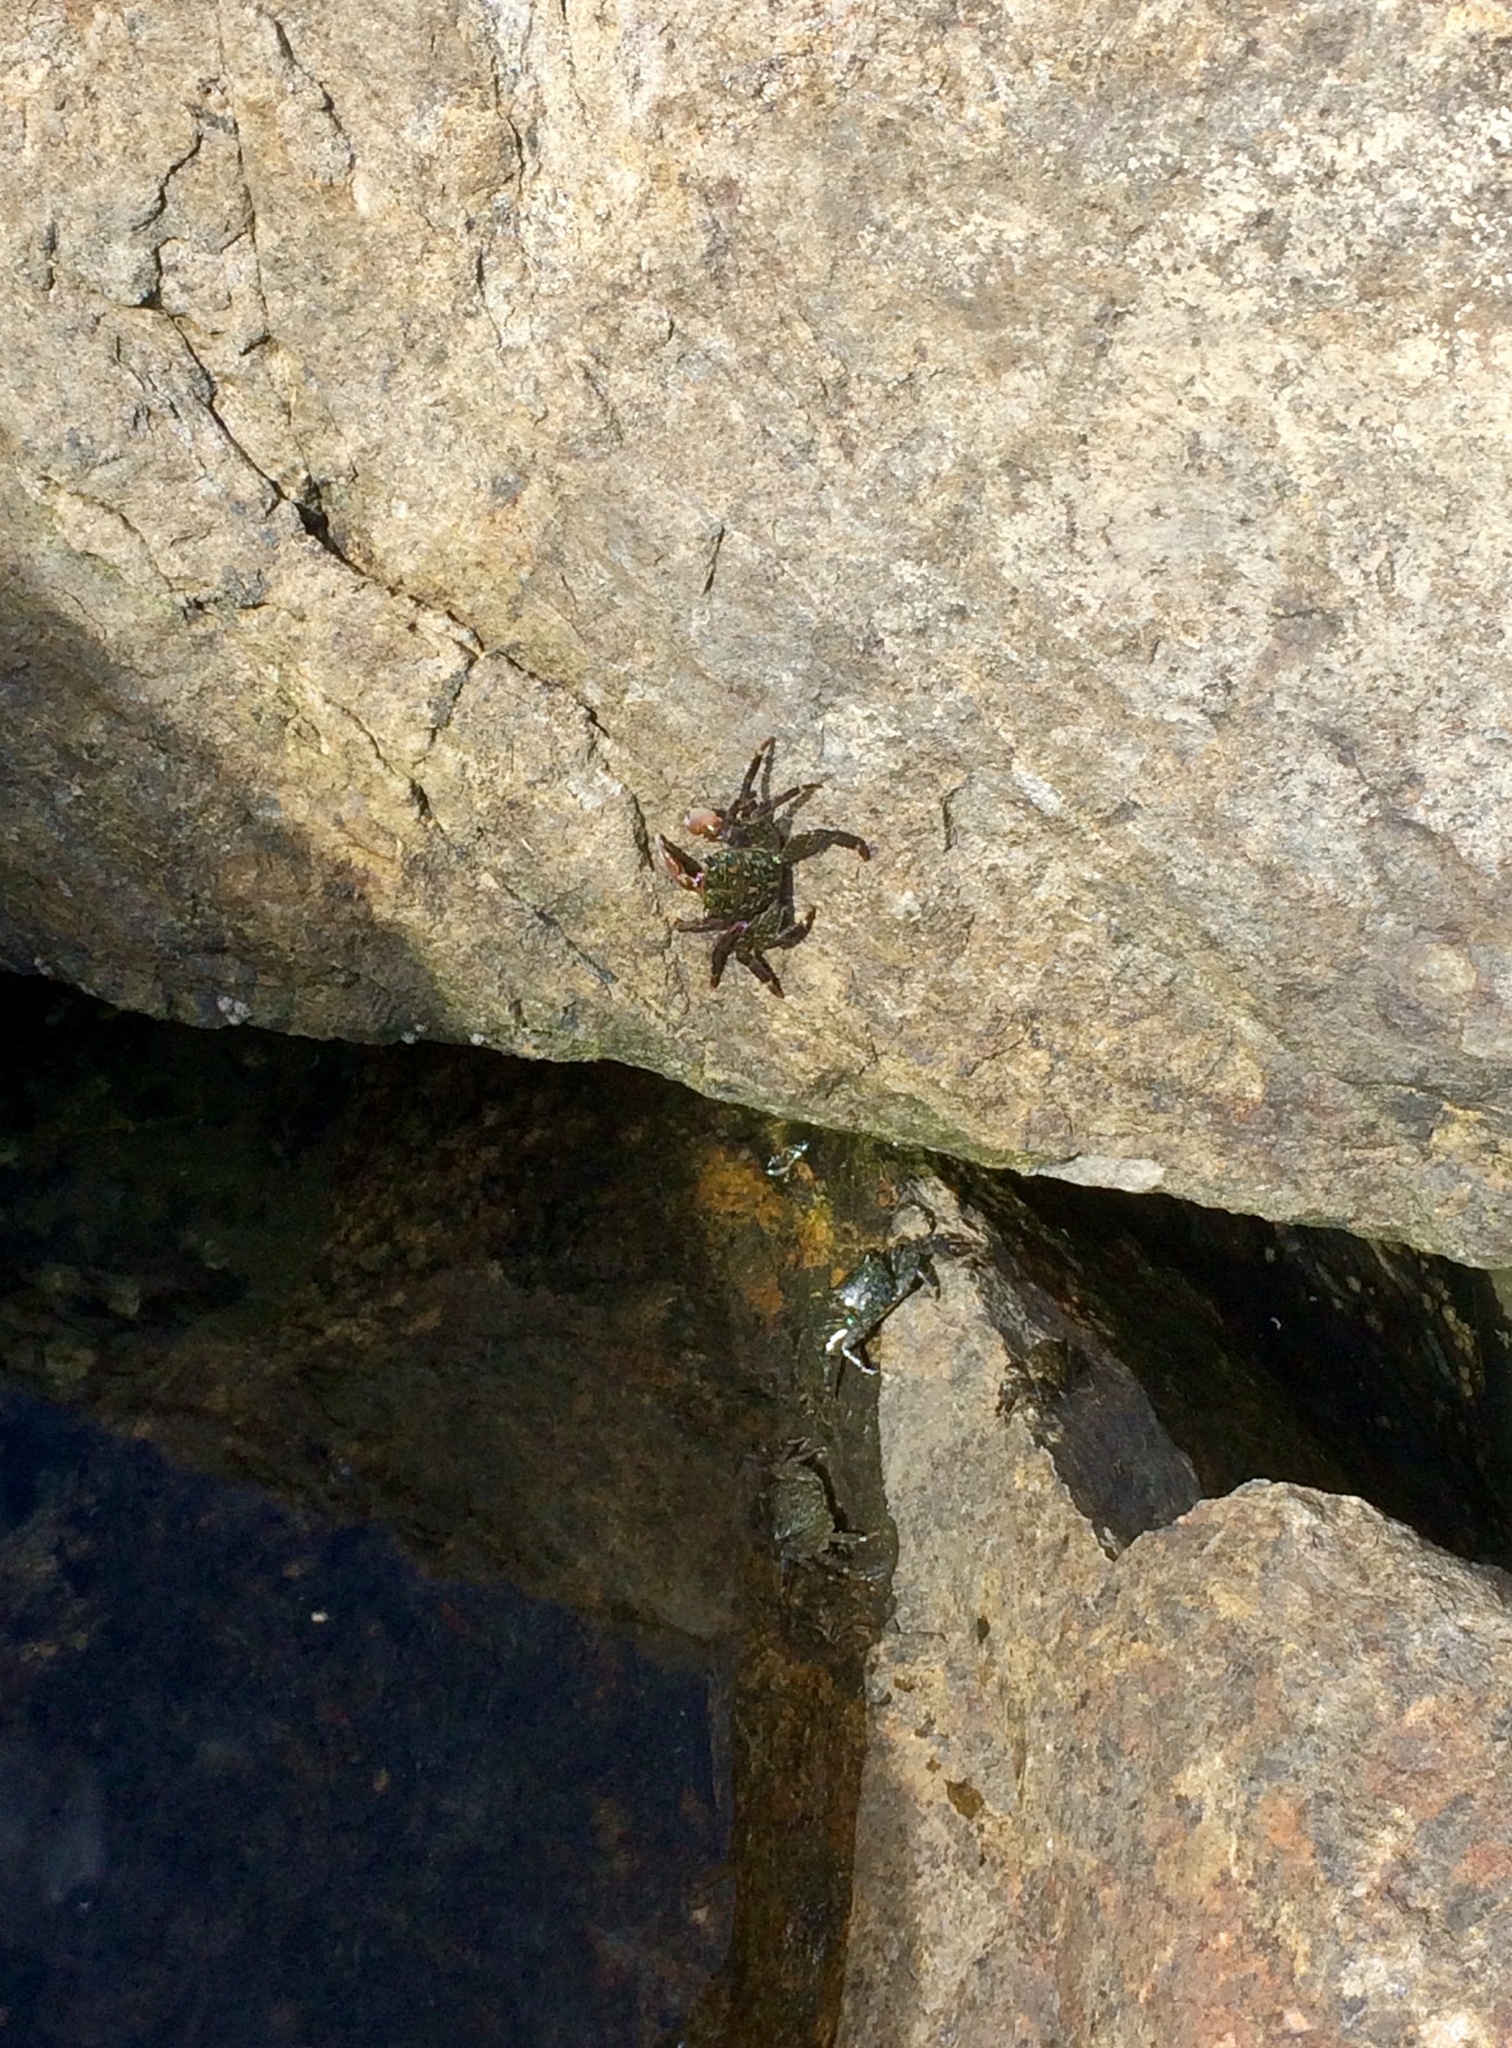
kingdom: Animalia
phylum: Arthropoda
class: Malacostraca
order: Decapoda
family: Grapsidae
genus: Pachygrapsus
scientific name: Pachygrapsus crassipes
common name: Striped shore crab
